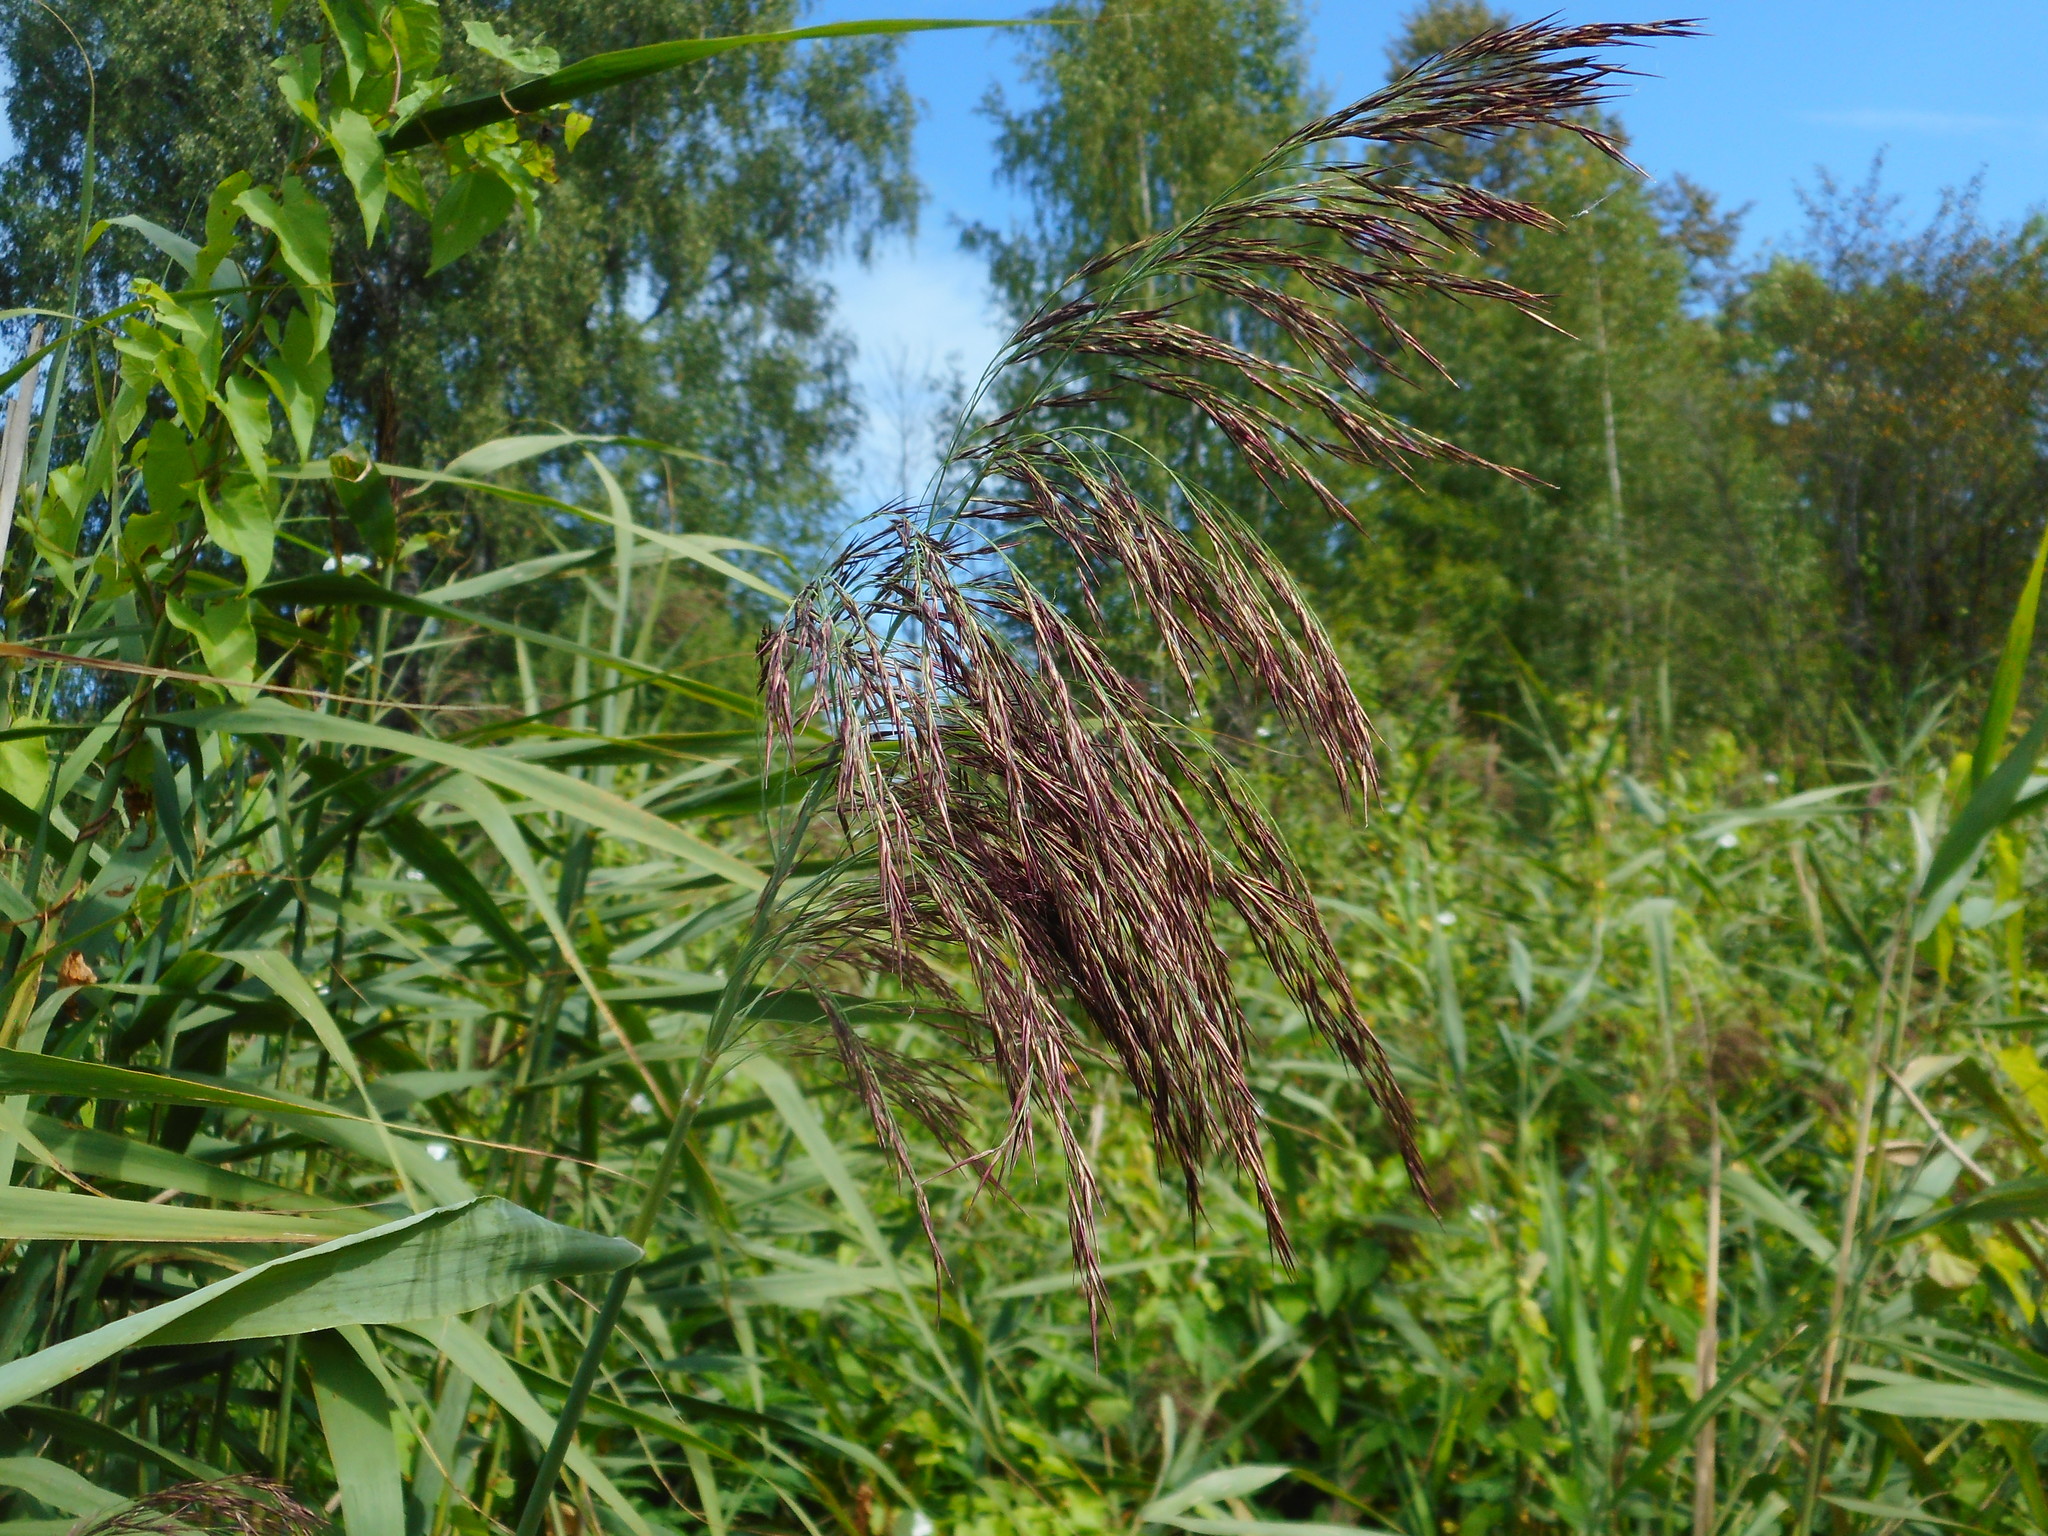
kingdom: Plantae
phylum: Tracheophyta
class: Liliopsida
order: Poales
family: Poaceae
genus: Phragmites
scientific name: Phragmites australis
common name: Common reed
